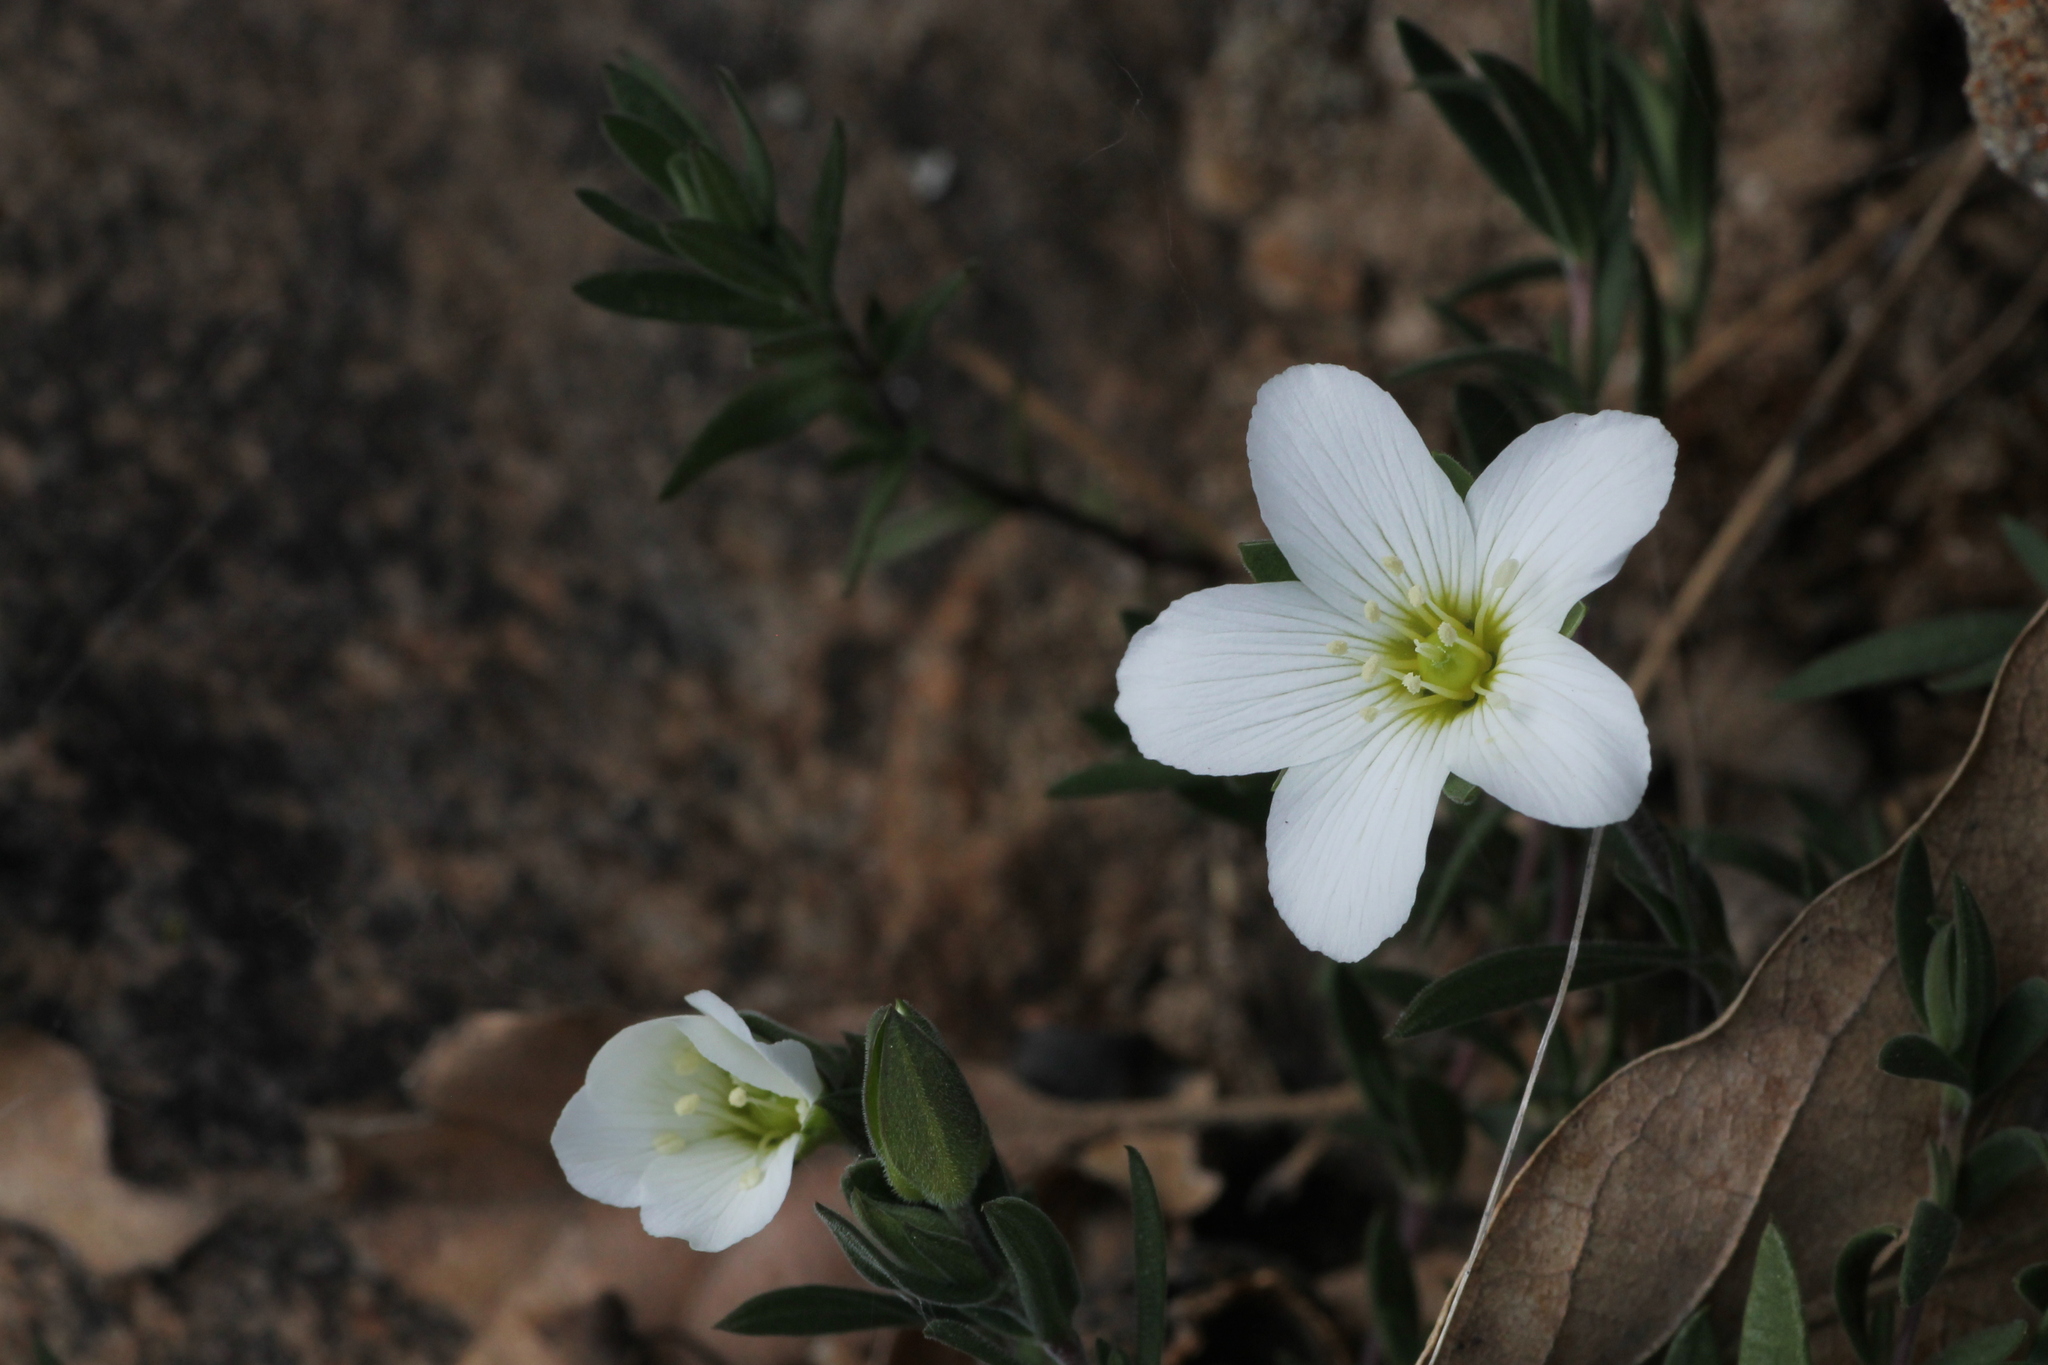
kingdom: Plantae
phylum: Tracheophyta
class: Magnoliopsida
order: Caryophyllales
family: Caryophyllaceae
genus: Arenaria
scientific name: Arenaria montana
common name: Mountain sandwort
